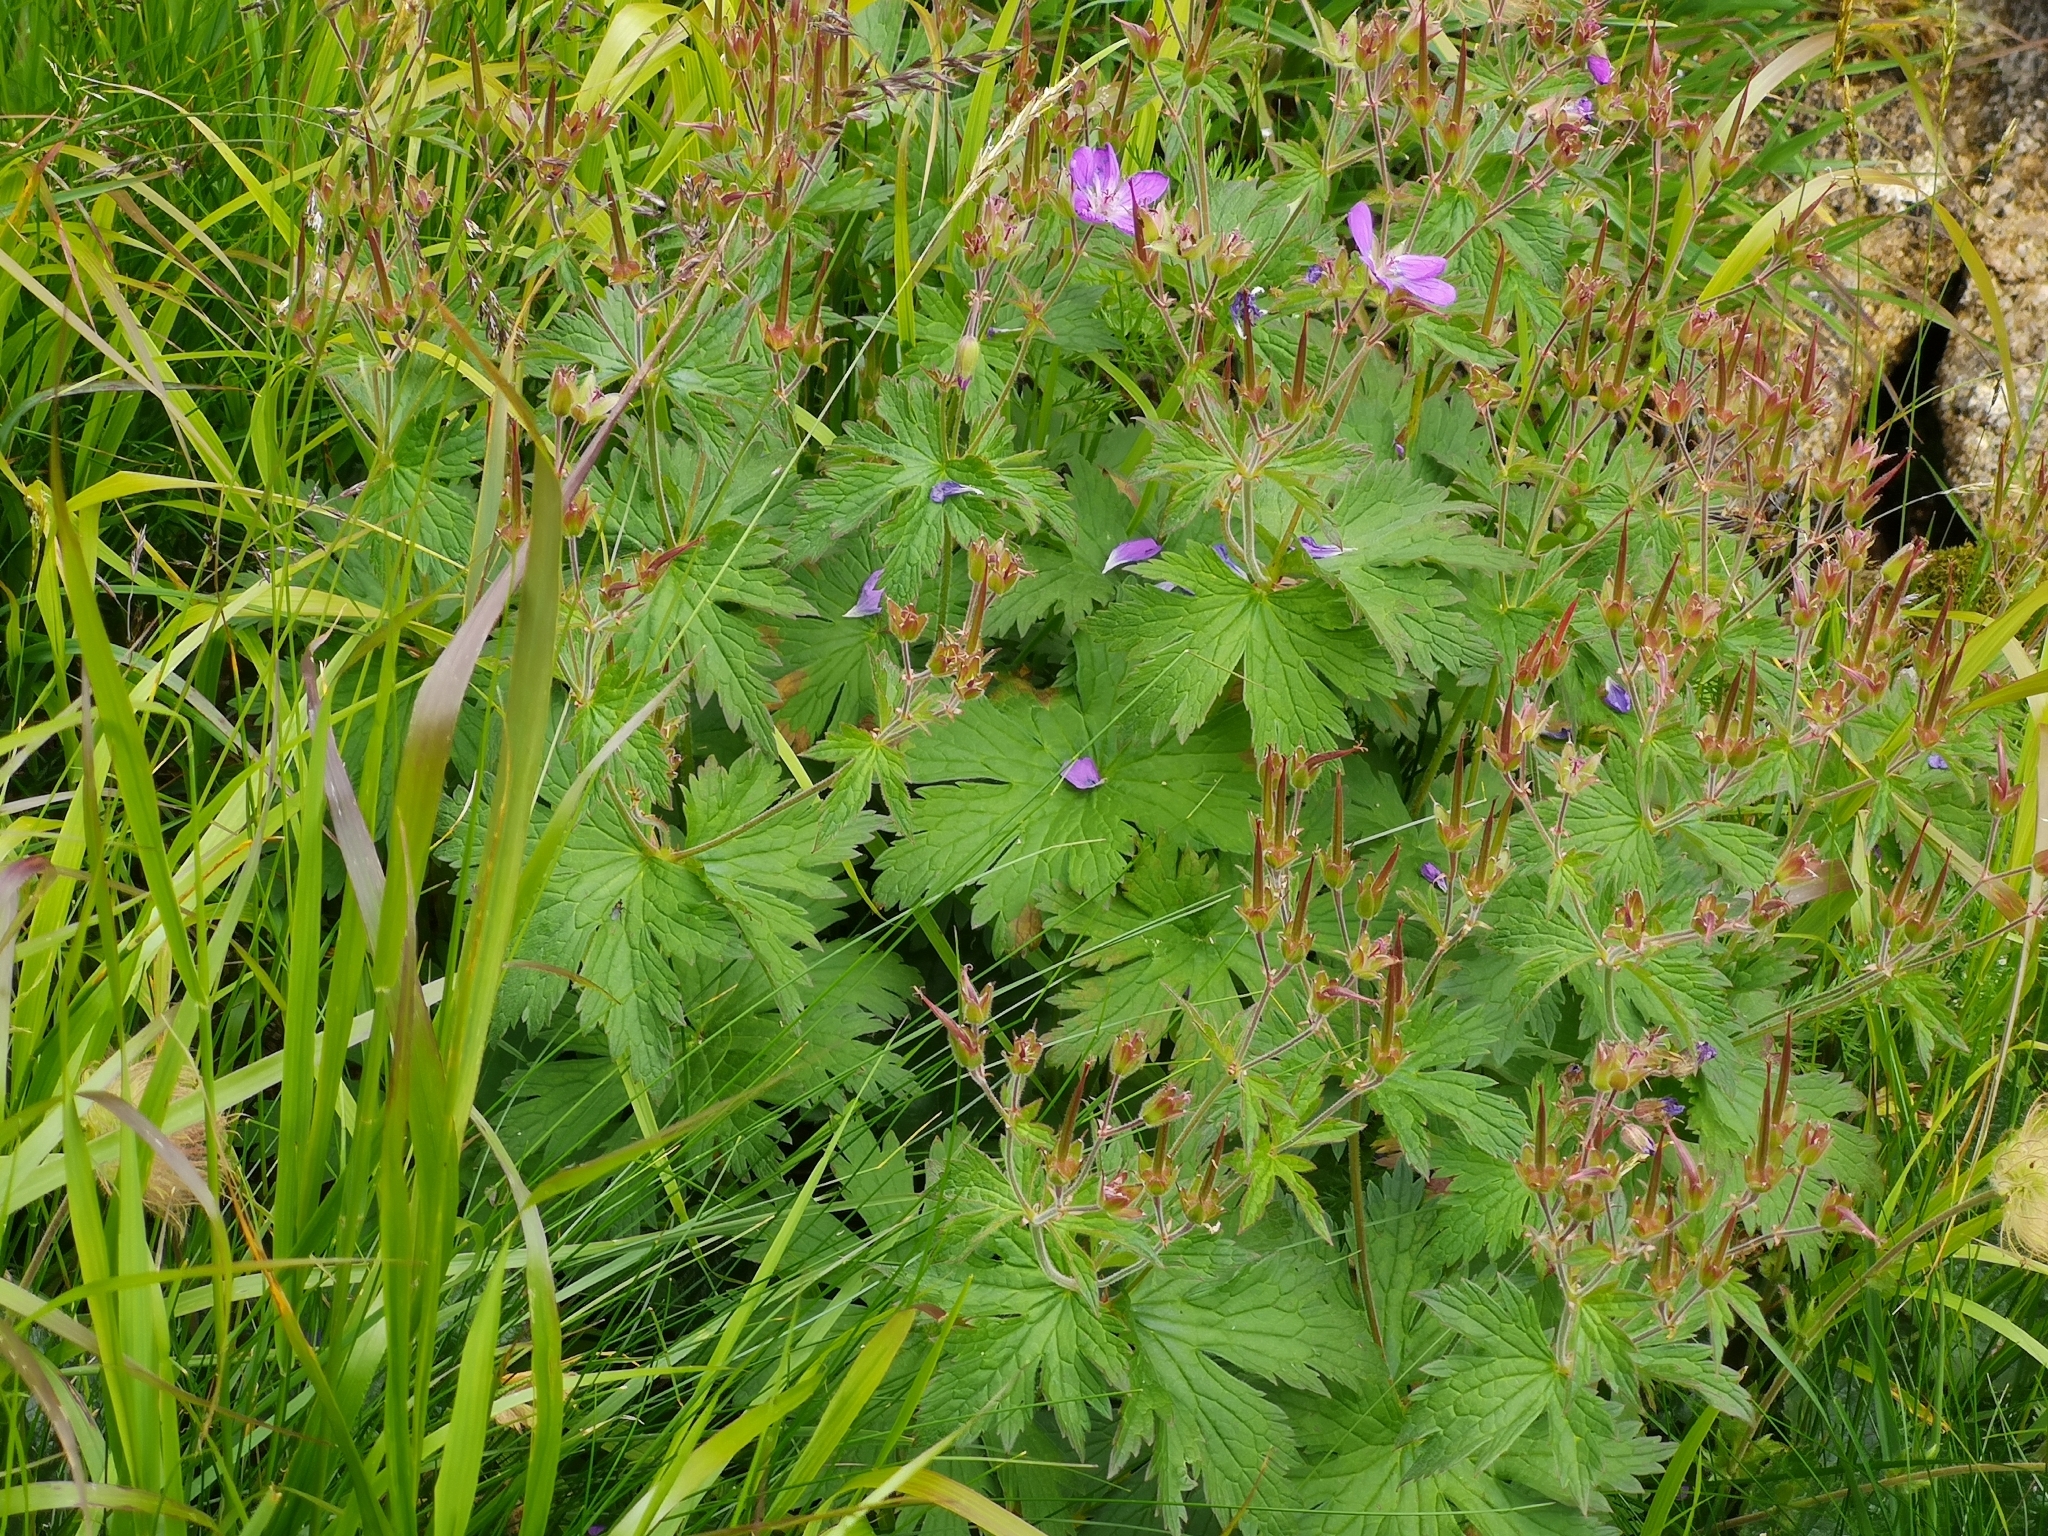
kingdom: Plantae
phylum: Tracheophyta
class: Magnoliopsida
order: Geraniales
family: Geraniaceae
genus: Geranium
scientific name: Geranium sylvaticum
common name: Wood crane's-bill
